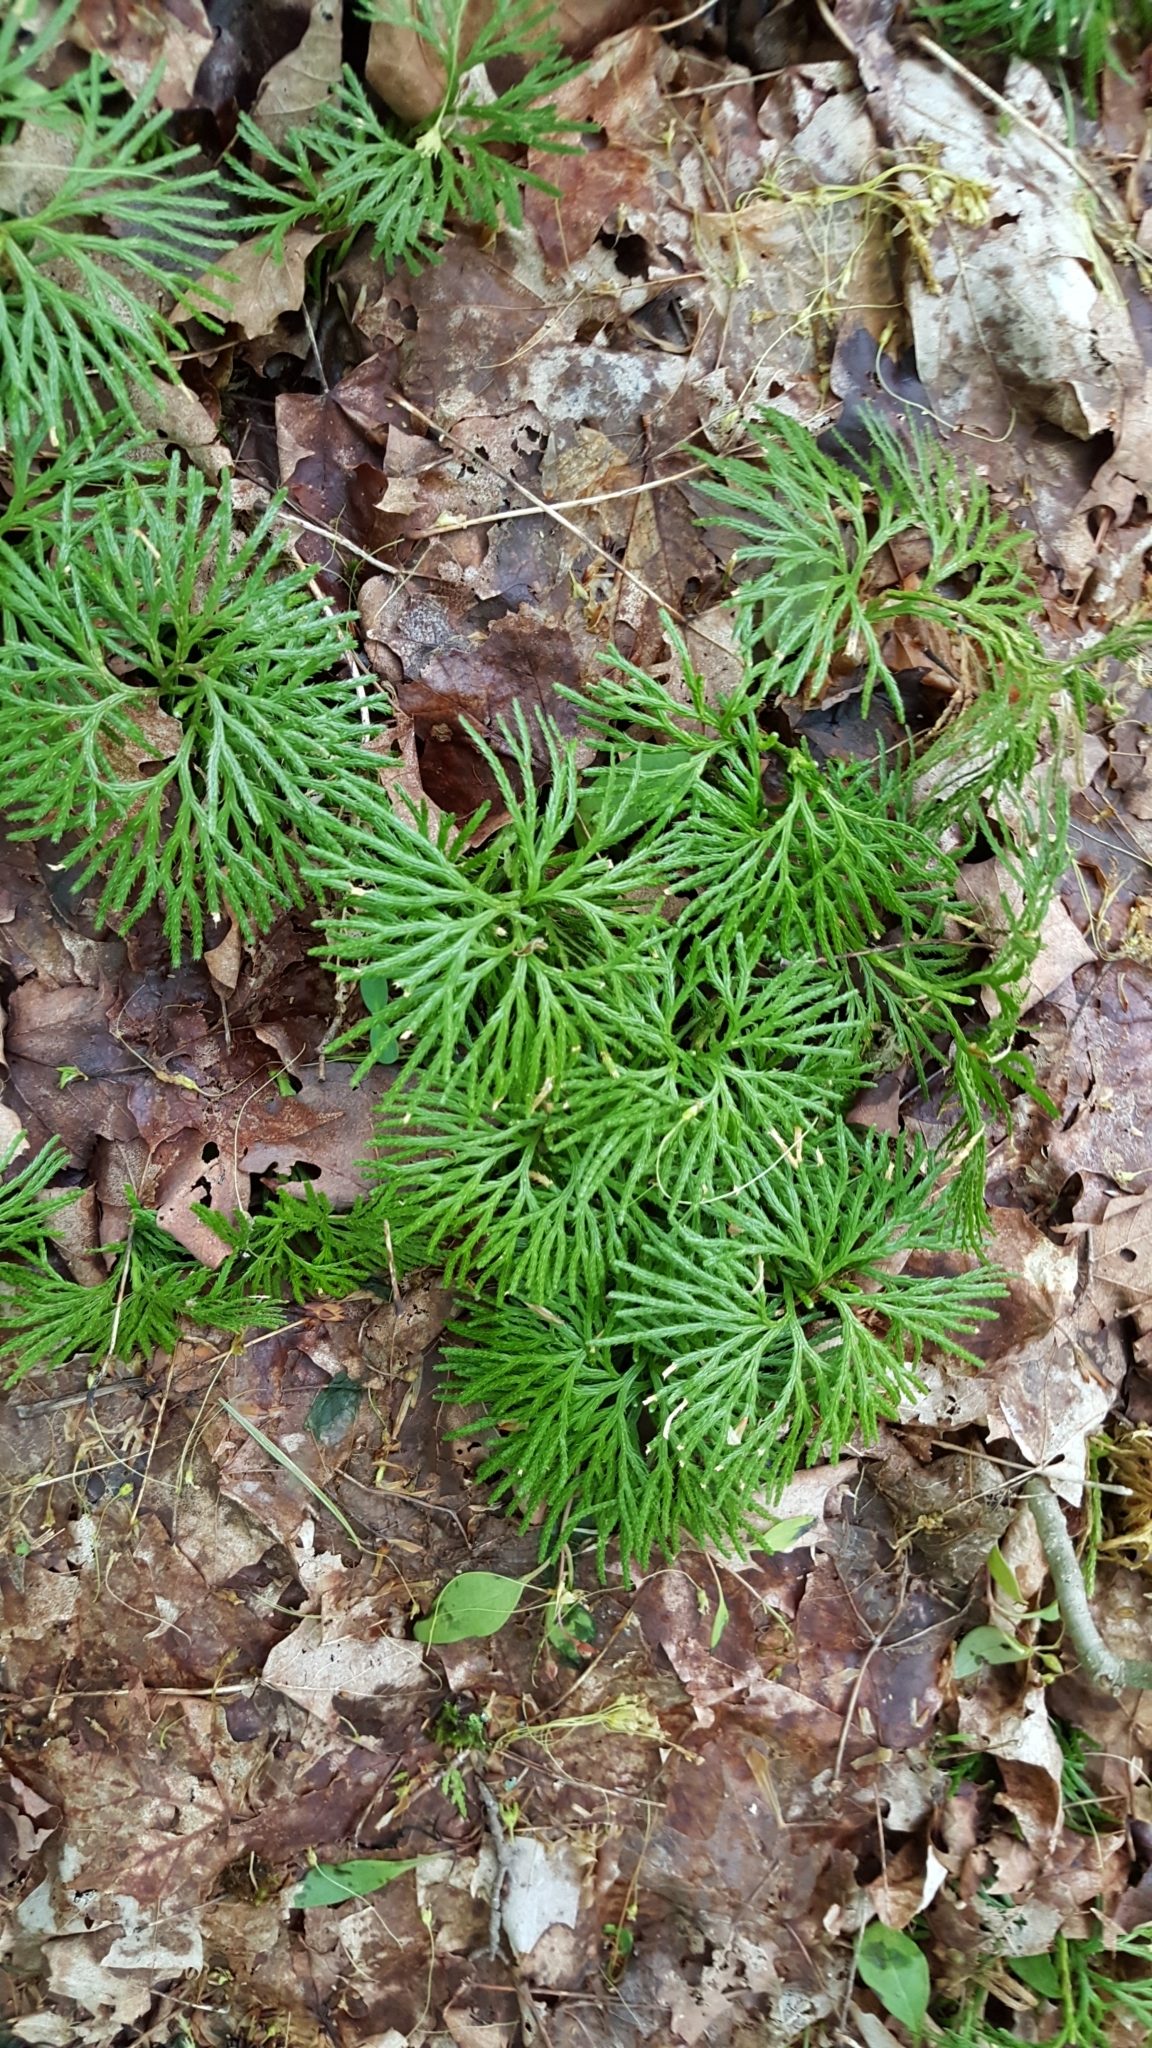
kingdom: Plantae
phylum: Tracheophyta
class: Lycopodiopsida
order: Lycopodiales
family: Lycopodiaceae
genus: Diphasiastrum
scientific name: Diphasiastrum digitatum
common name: Southern running-pine
